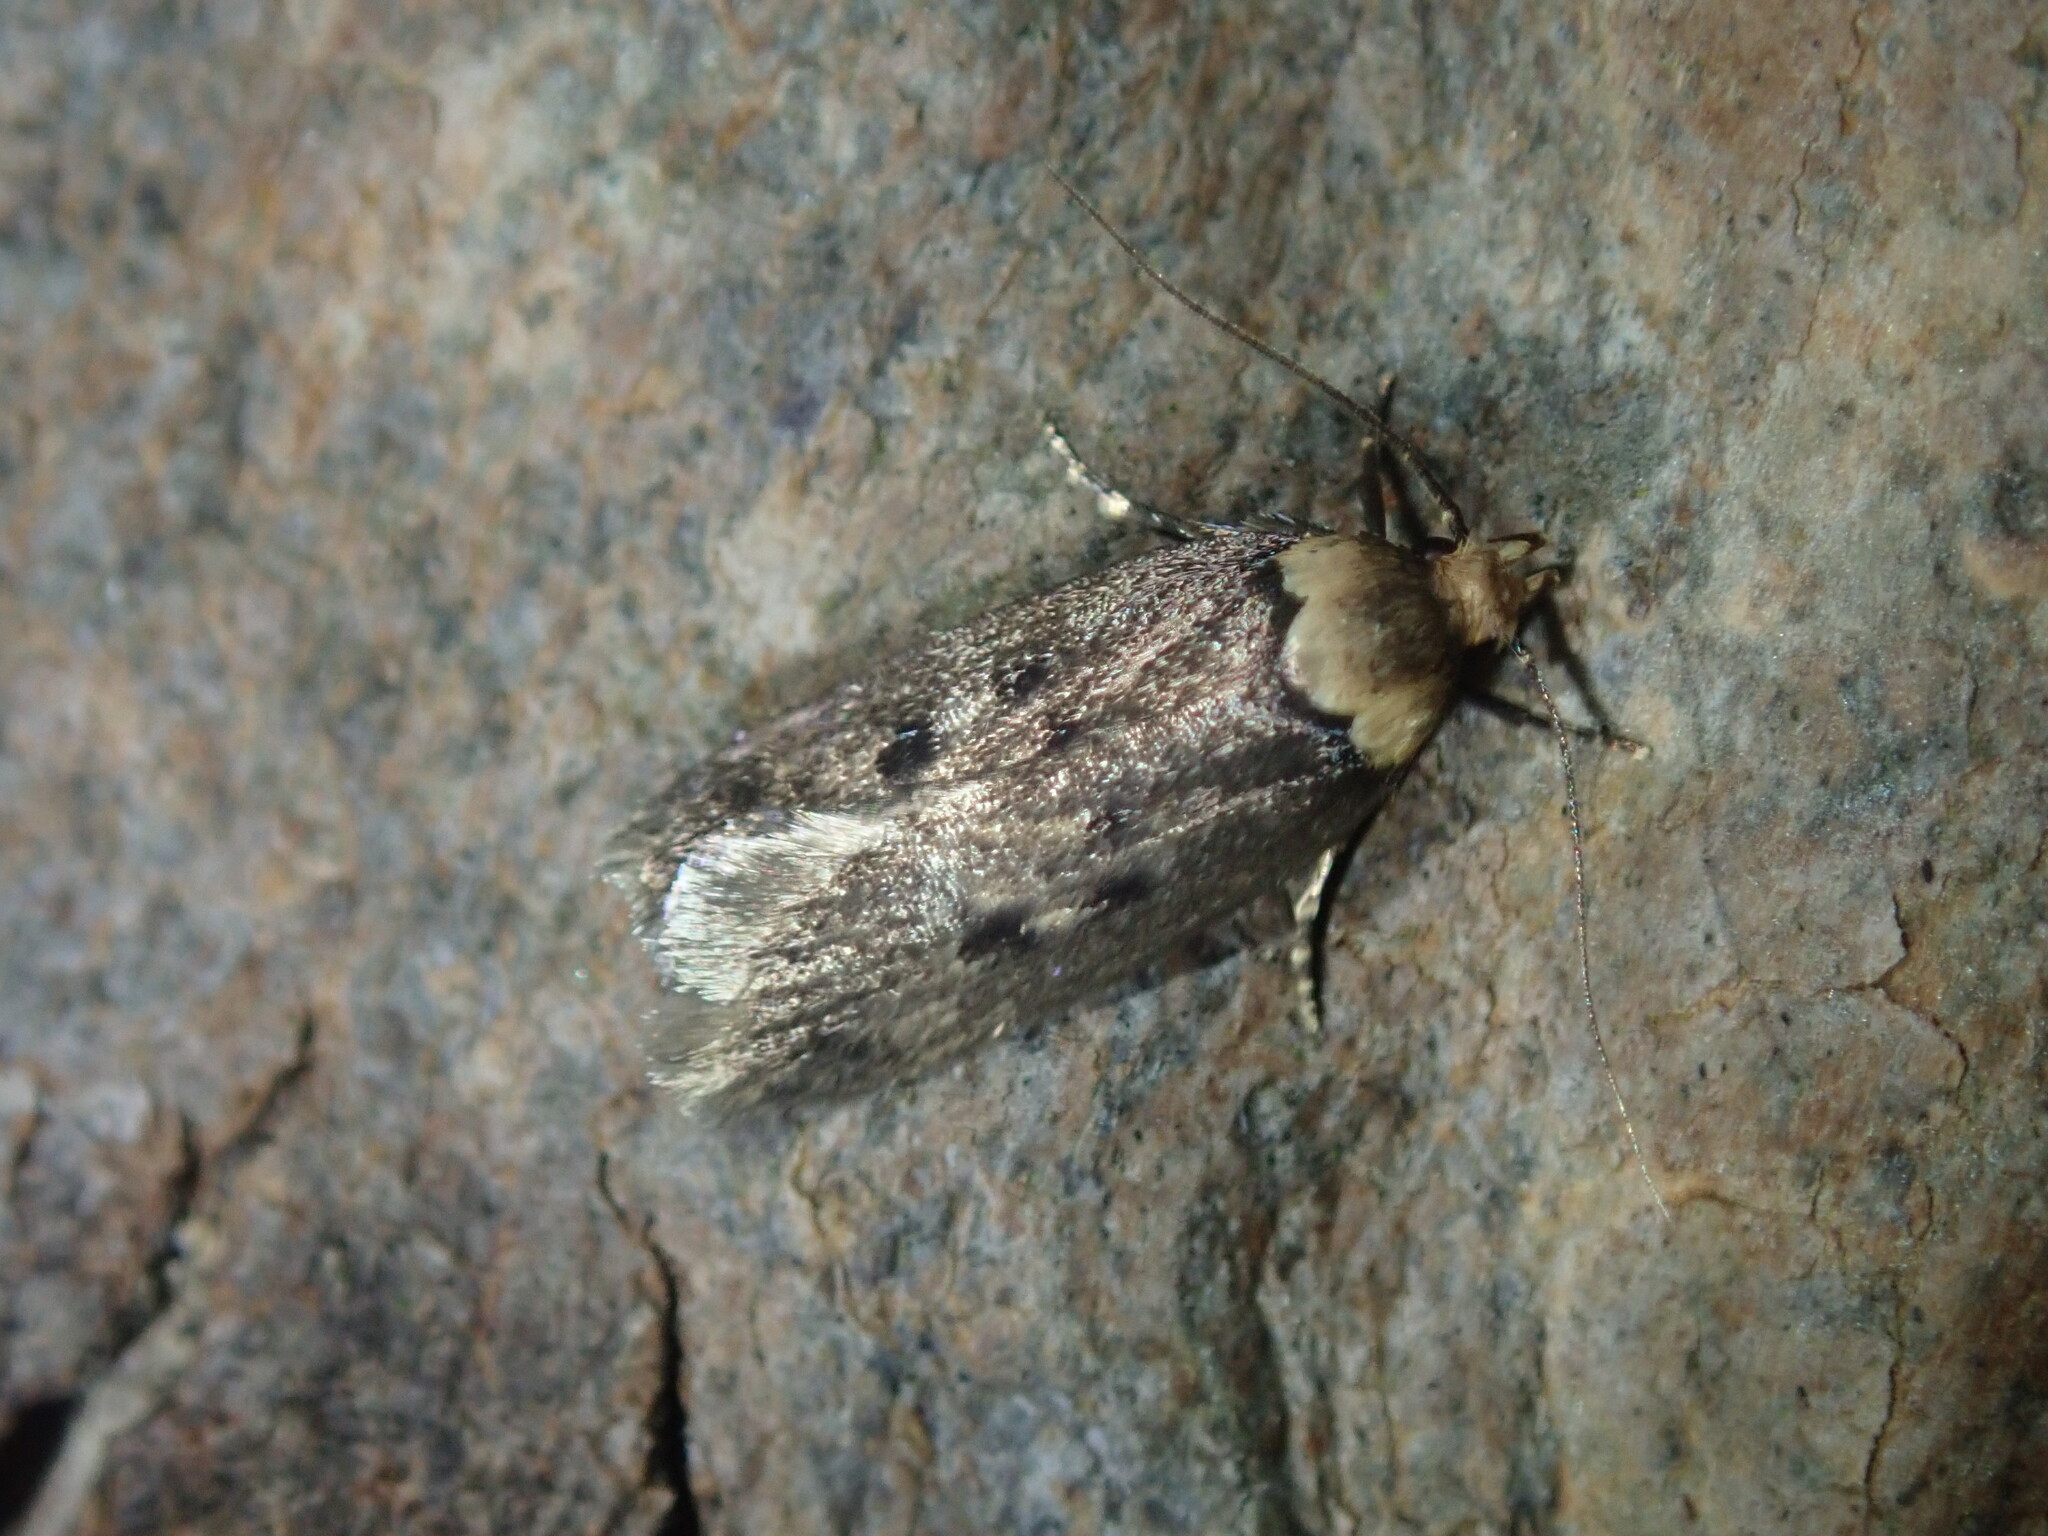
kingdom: Animalia
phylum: Arthropoda
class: Insecta
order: Lepidoptera
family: Oecophoridae
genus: Mimobrachyoma
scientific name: Mimobrachyoma maculifera
